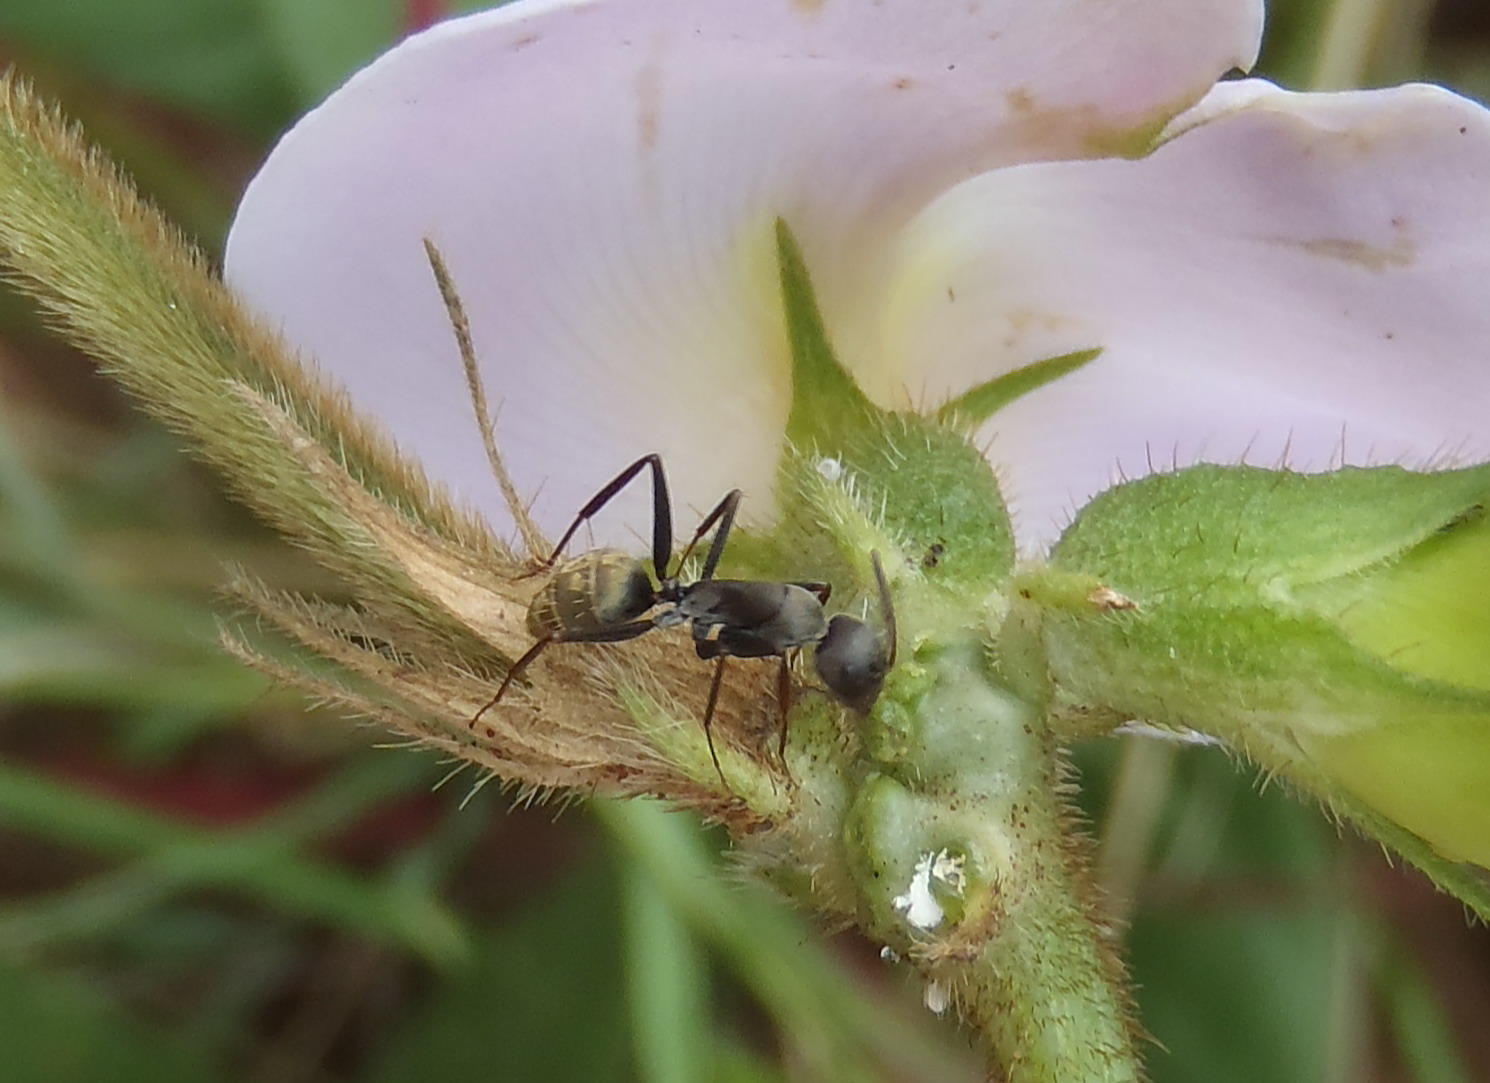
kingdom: Animalia
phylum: Arthropoda
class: Insecta
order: Hymenoptera
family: Formicidae
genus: Camponotus
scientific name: Camponotus cinctellus
